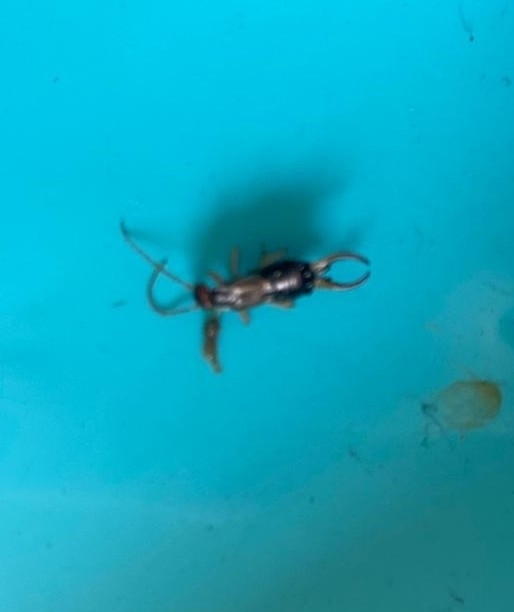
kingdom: Animalia
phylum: Arthropoda
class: Insecta
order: Dermaptera
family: Forficulidae
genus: Forficula
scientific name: Forficula
